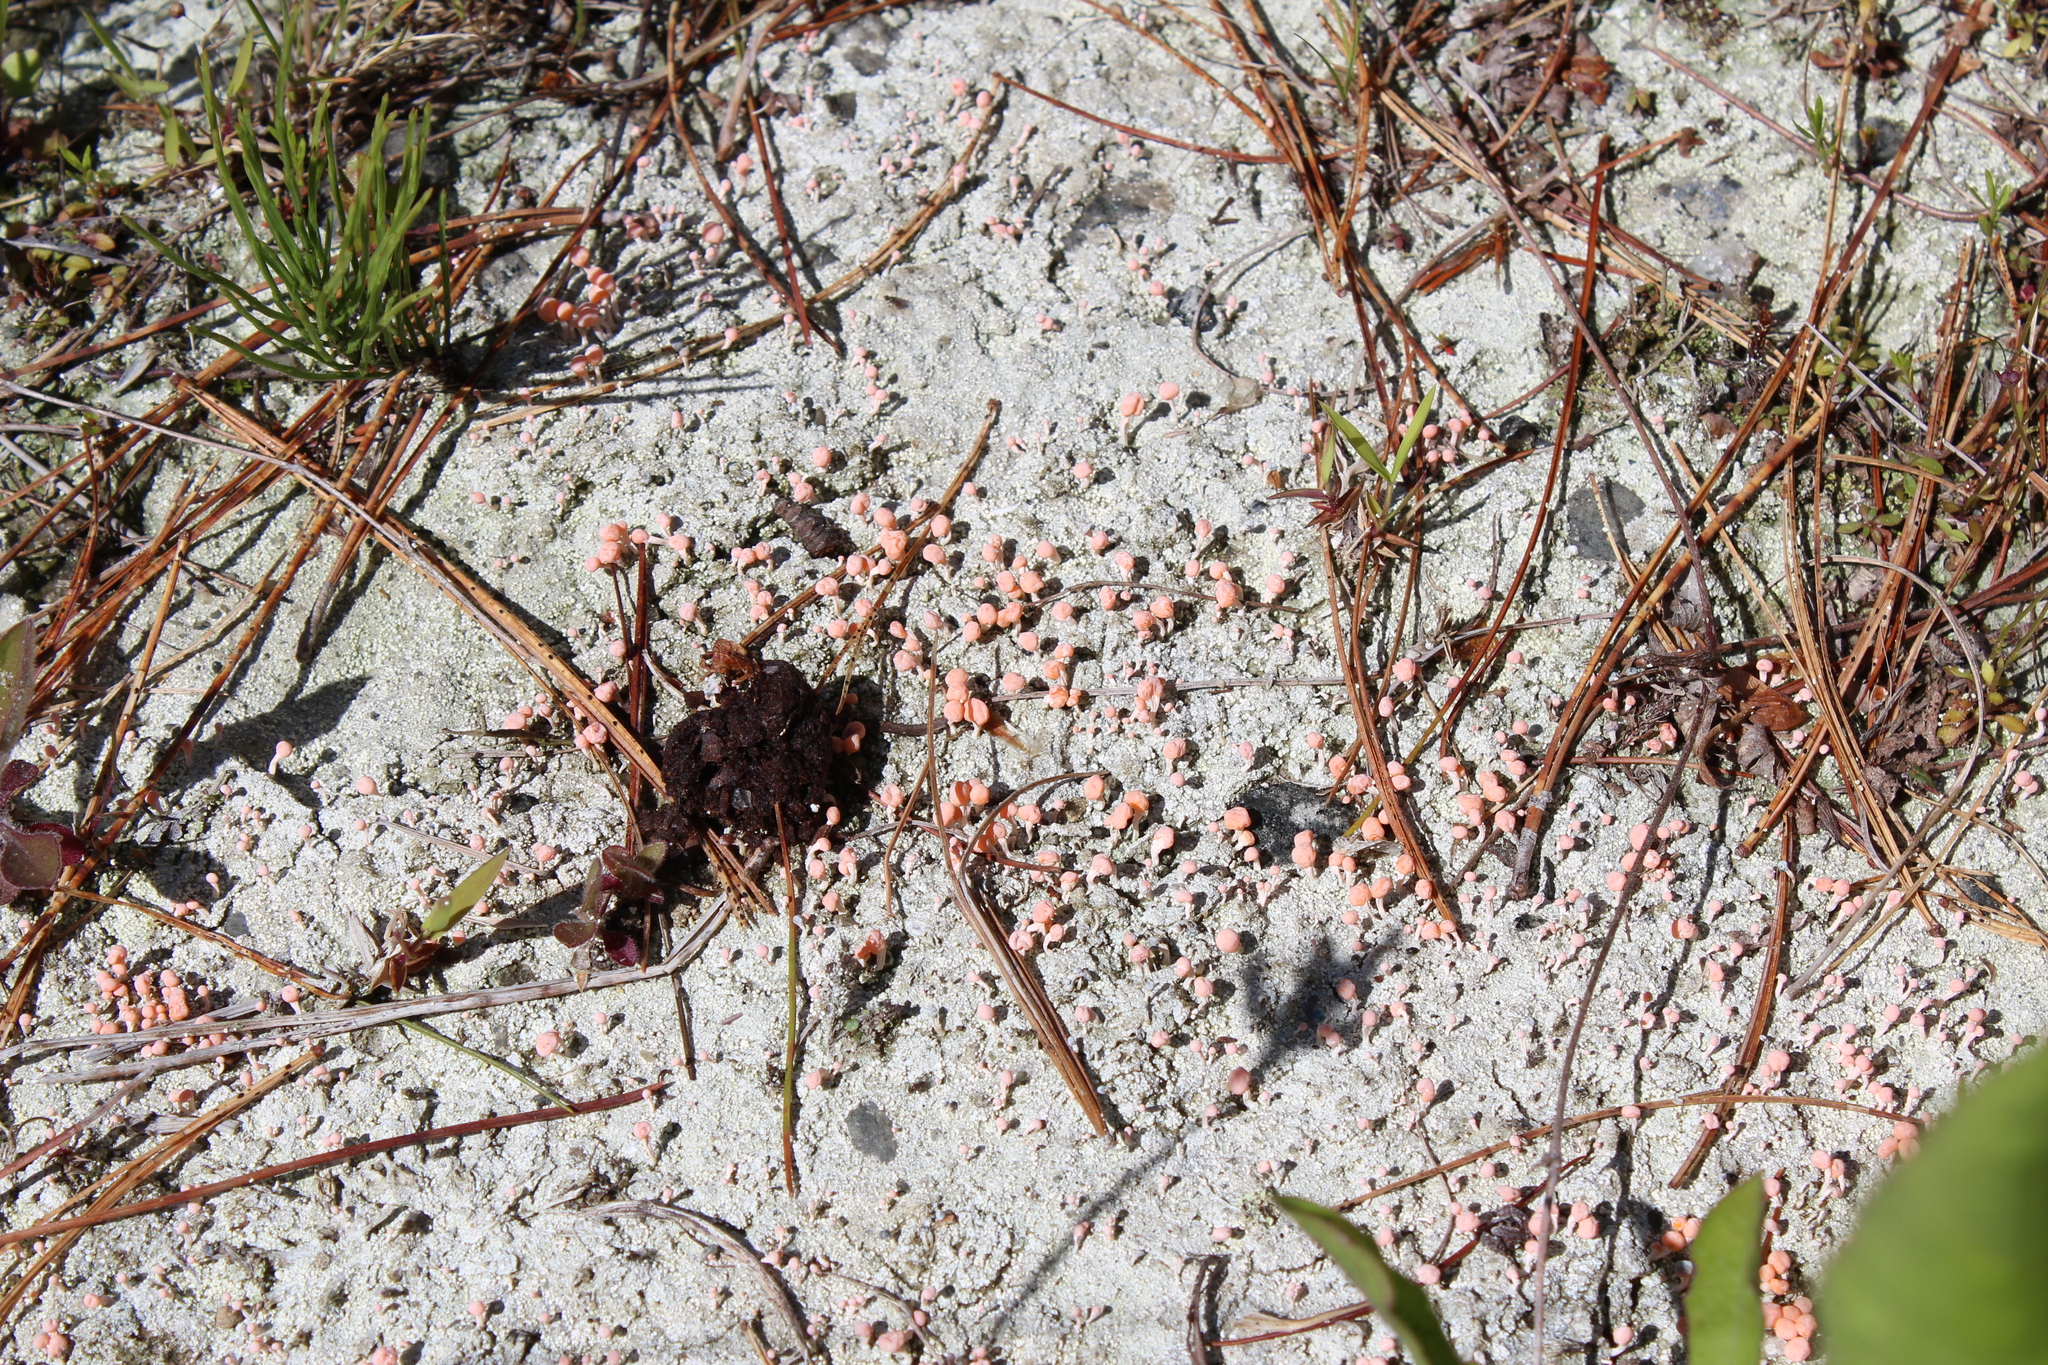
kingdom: Fungi
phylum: Ascomycota
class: Lecanoromycetes
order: Pertusariales
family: Icmadophilaceae
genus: Dibaeis
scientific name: Dibaeis baeomyces
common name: Pink earth lichen
